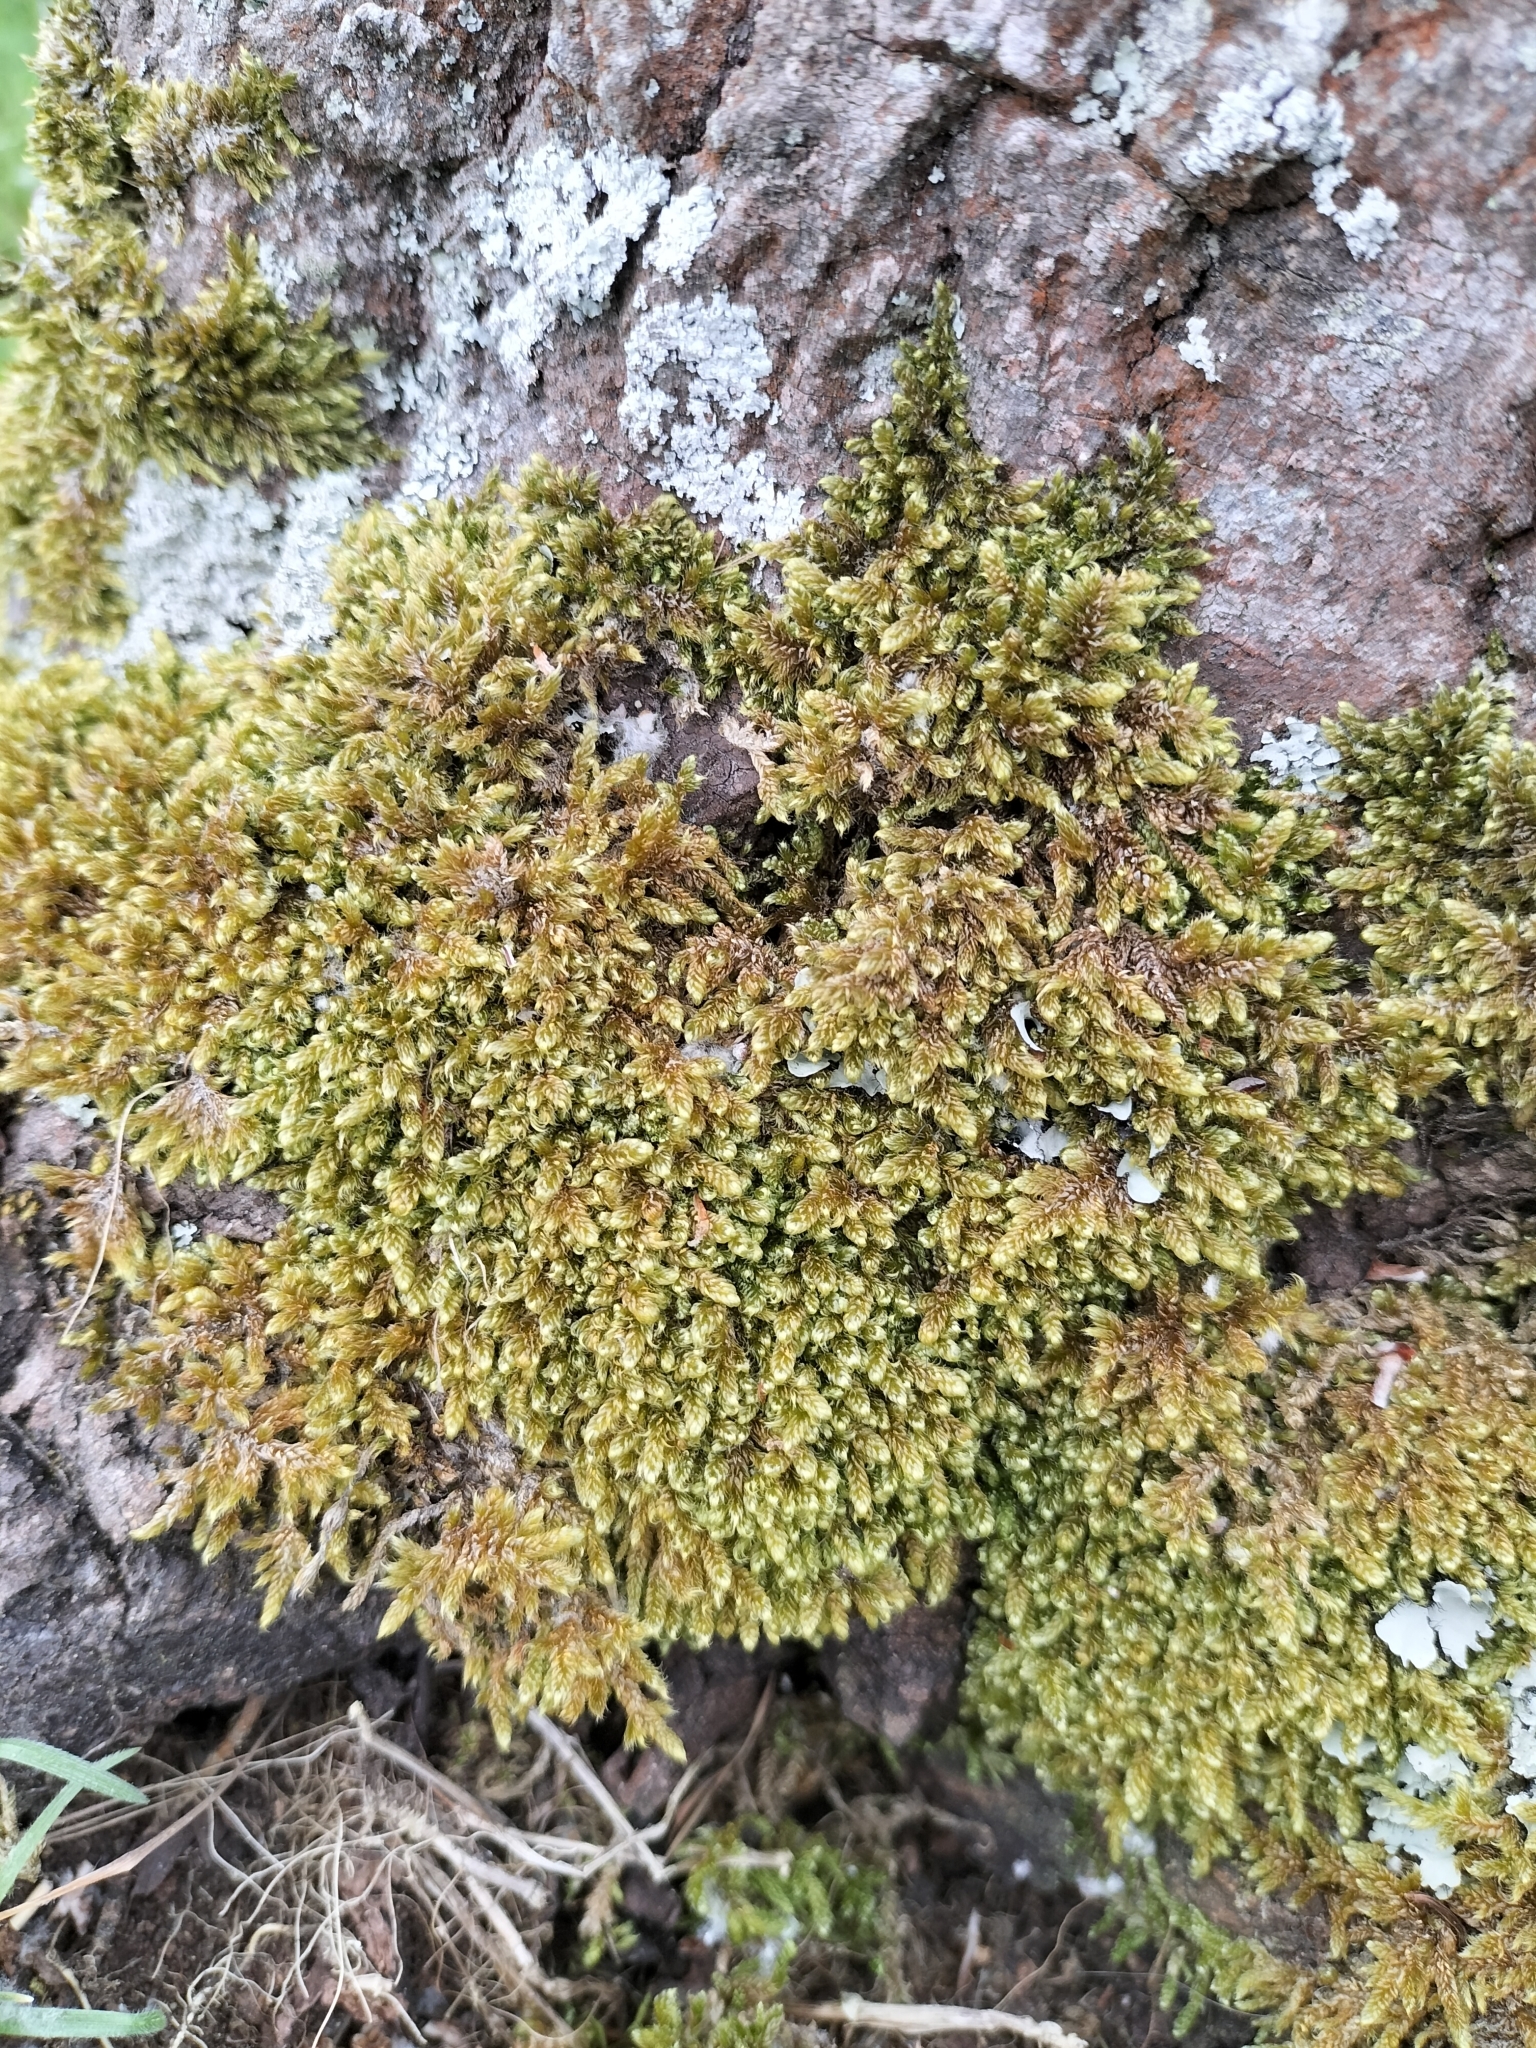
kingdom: Plantae
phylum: Bryophyta
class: Bryopsida
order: Hypnales
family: Hypnaceae
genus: Hypnum
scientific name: Hypnum cupressiforme
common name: Cypress-leaved plait-moss
